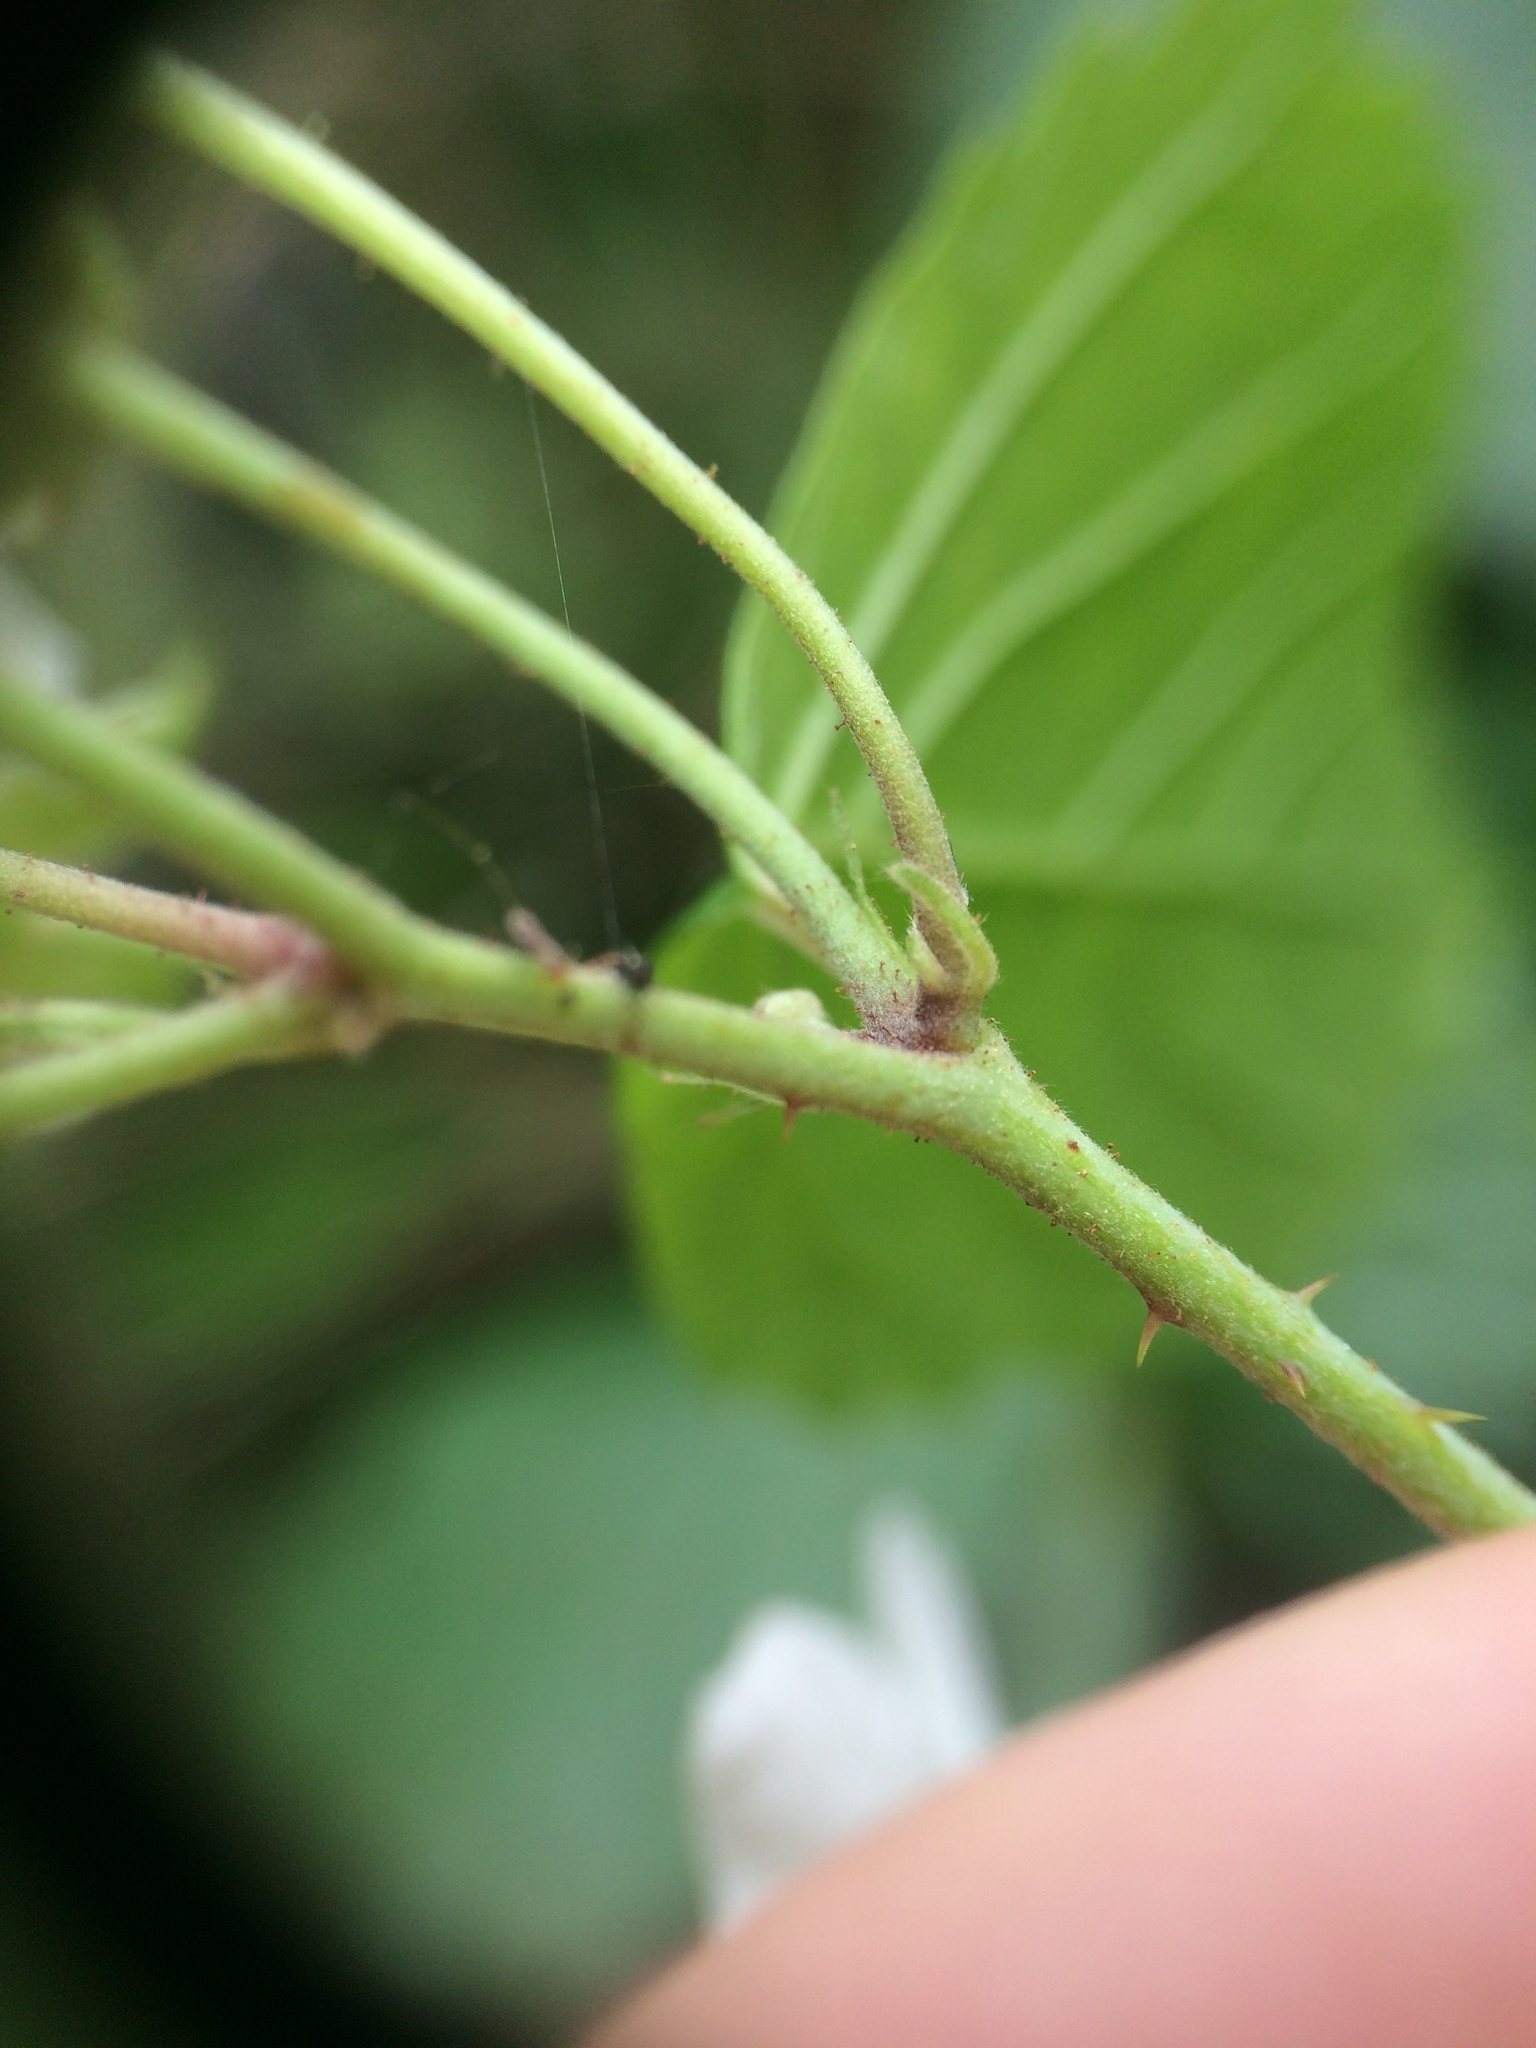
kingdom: Plantae
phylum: Tracheophyta
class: Magnoliopsida
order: Rosales
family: Rosaceae
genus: Rubus
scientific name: Rubus caesius
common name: Dewberry
